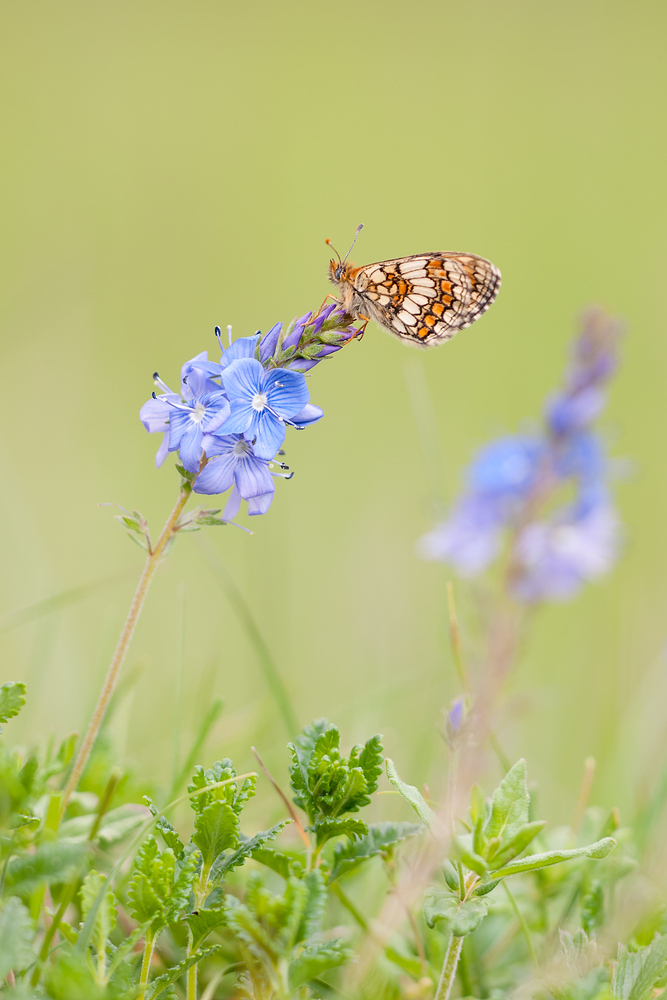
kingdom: Animalia
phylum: Arthropoda
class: Insecta
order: Lepidoptera
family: Nymphalidae
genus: Mellicta
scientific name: Mellicta parthenoides
